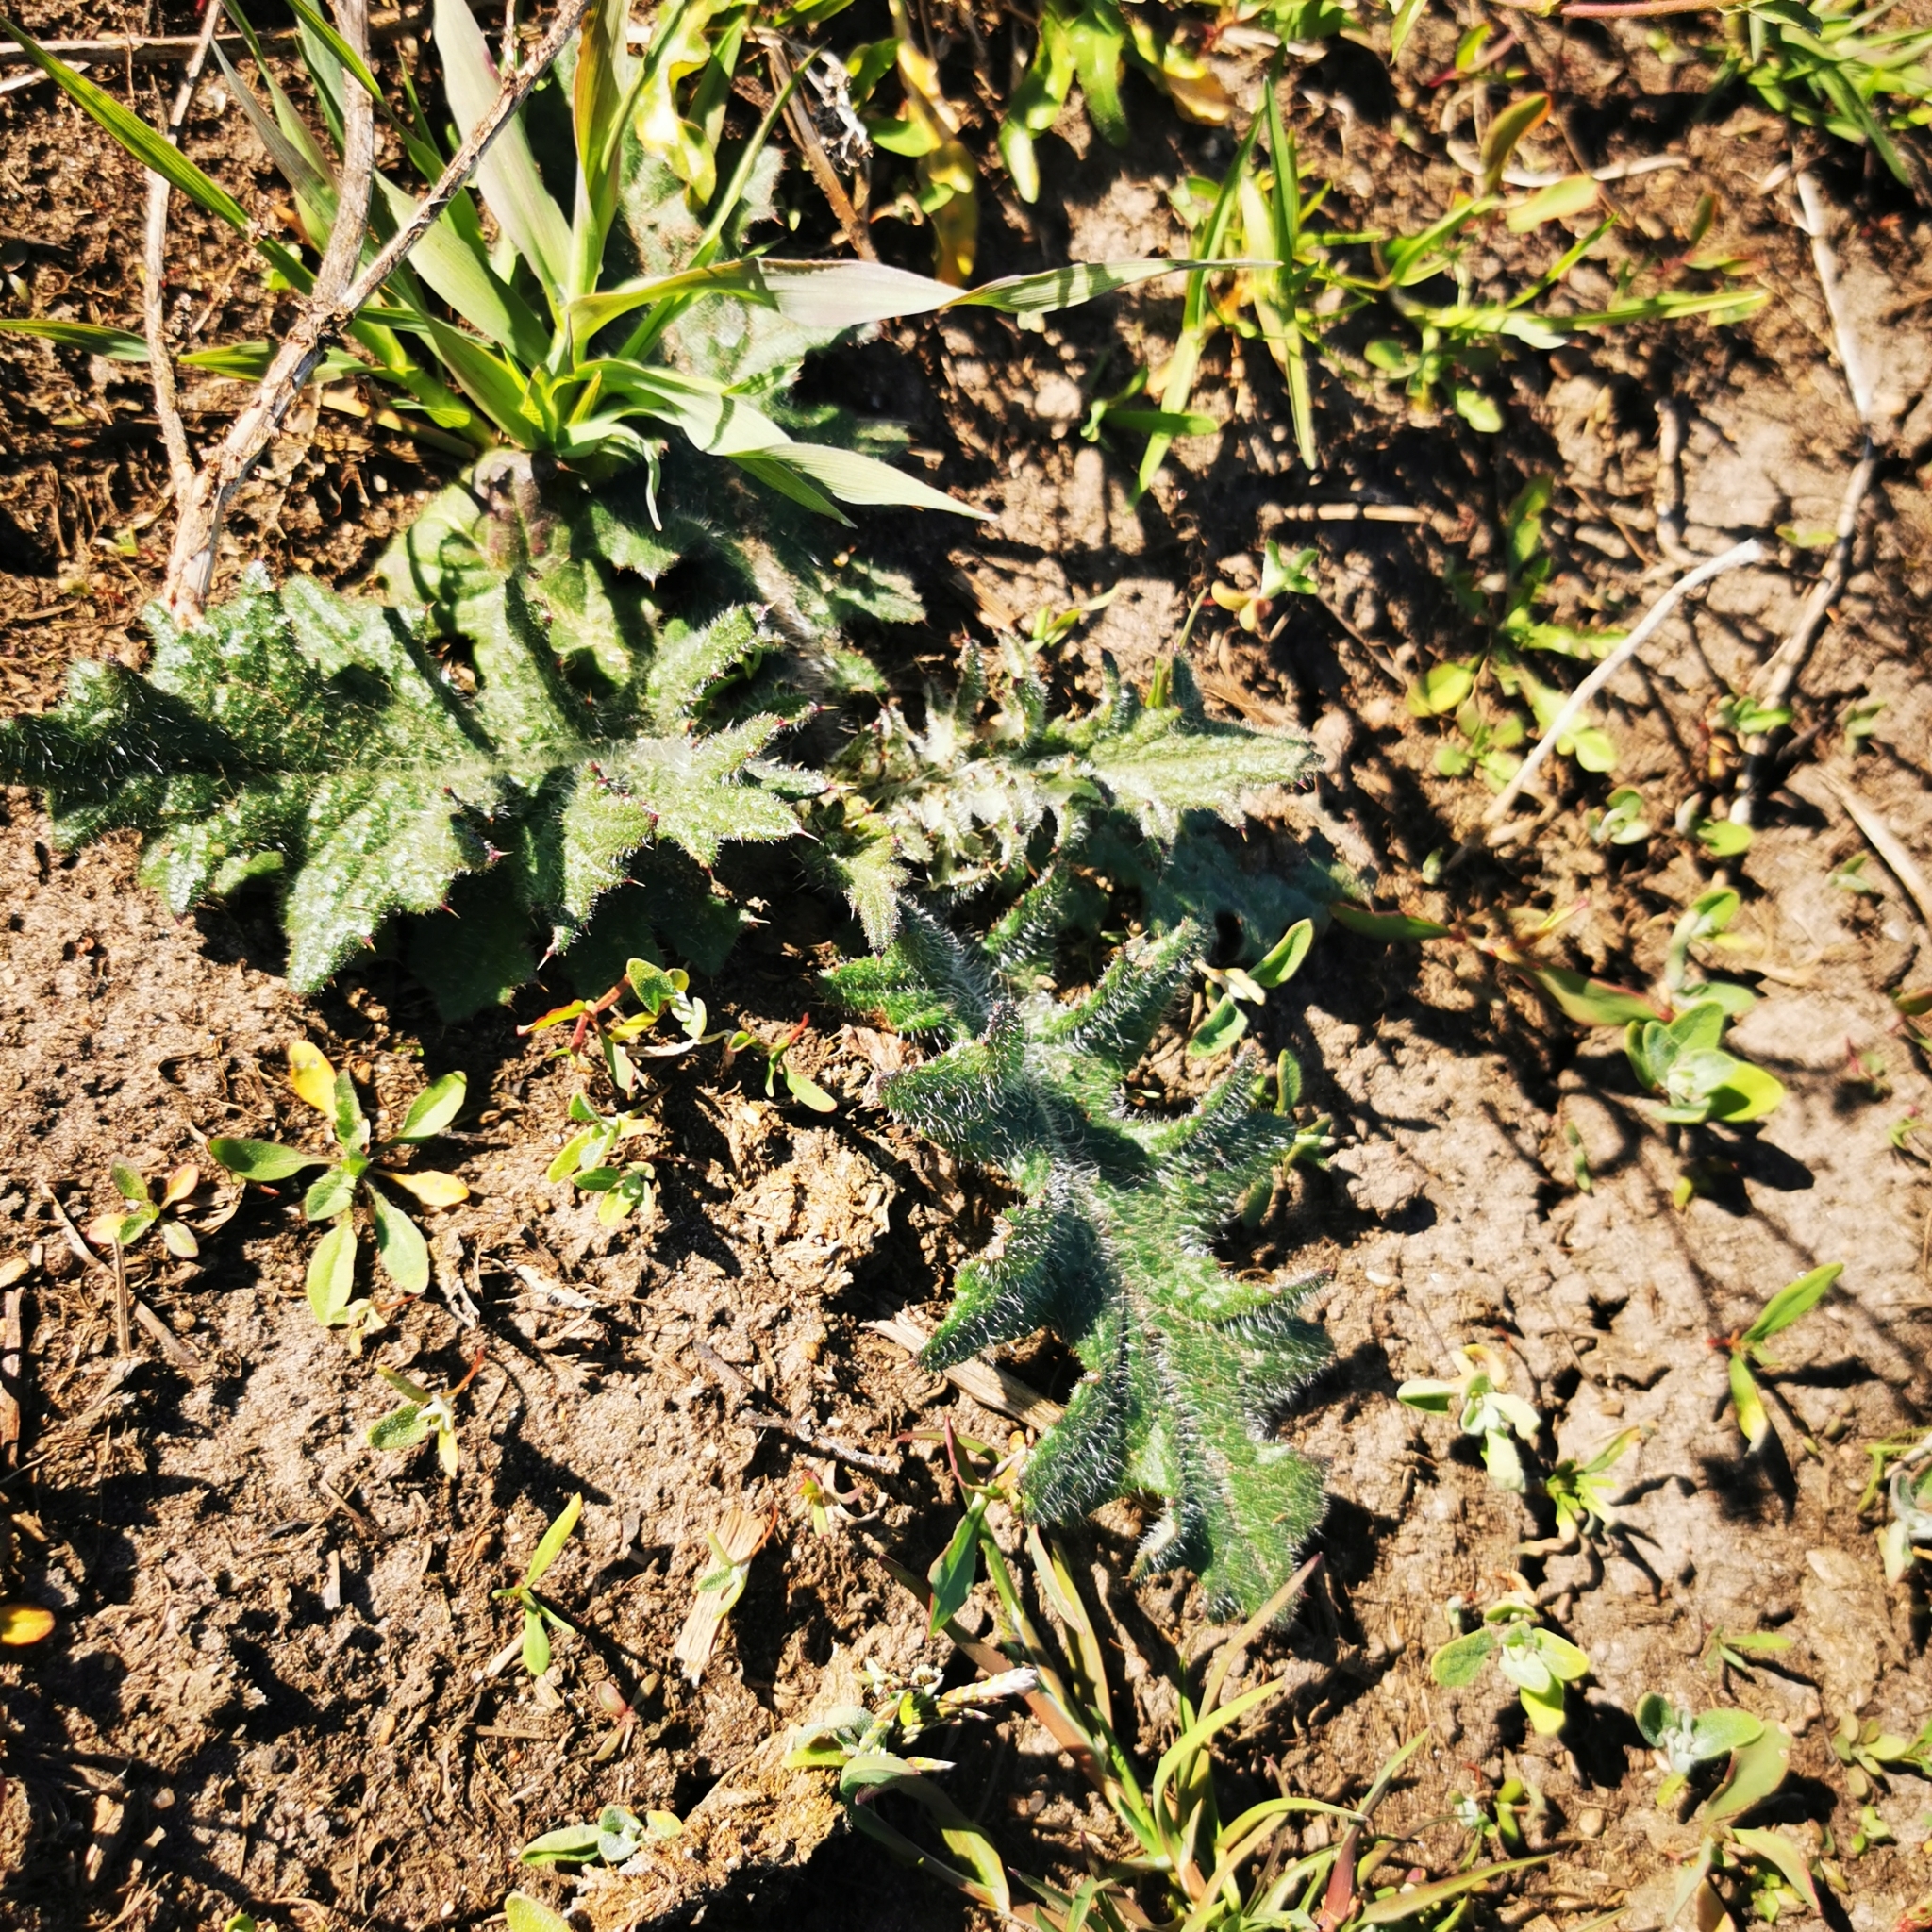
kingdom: Plantae
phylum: Tracheophyta
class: Magnoliopsida
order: Asterales
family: Asteraceae
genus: Cirsium
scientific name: Cirsium vulgare
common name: Bull thistle
